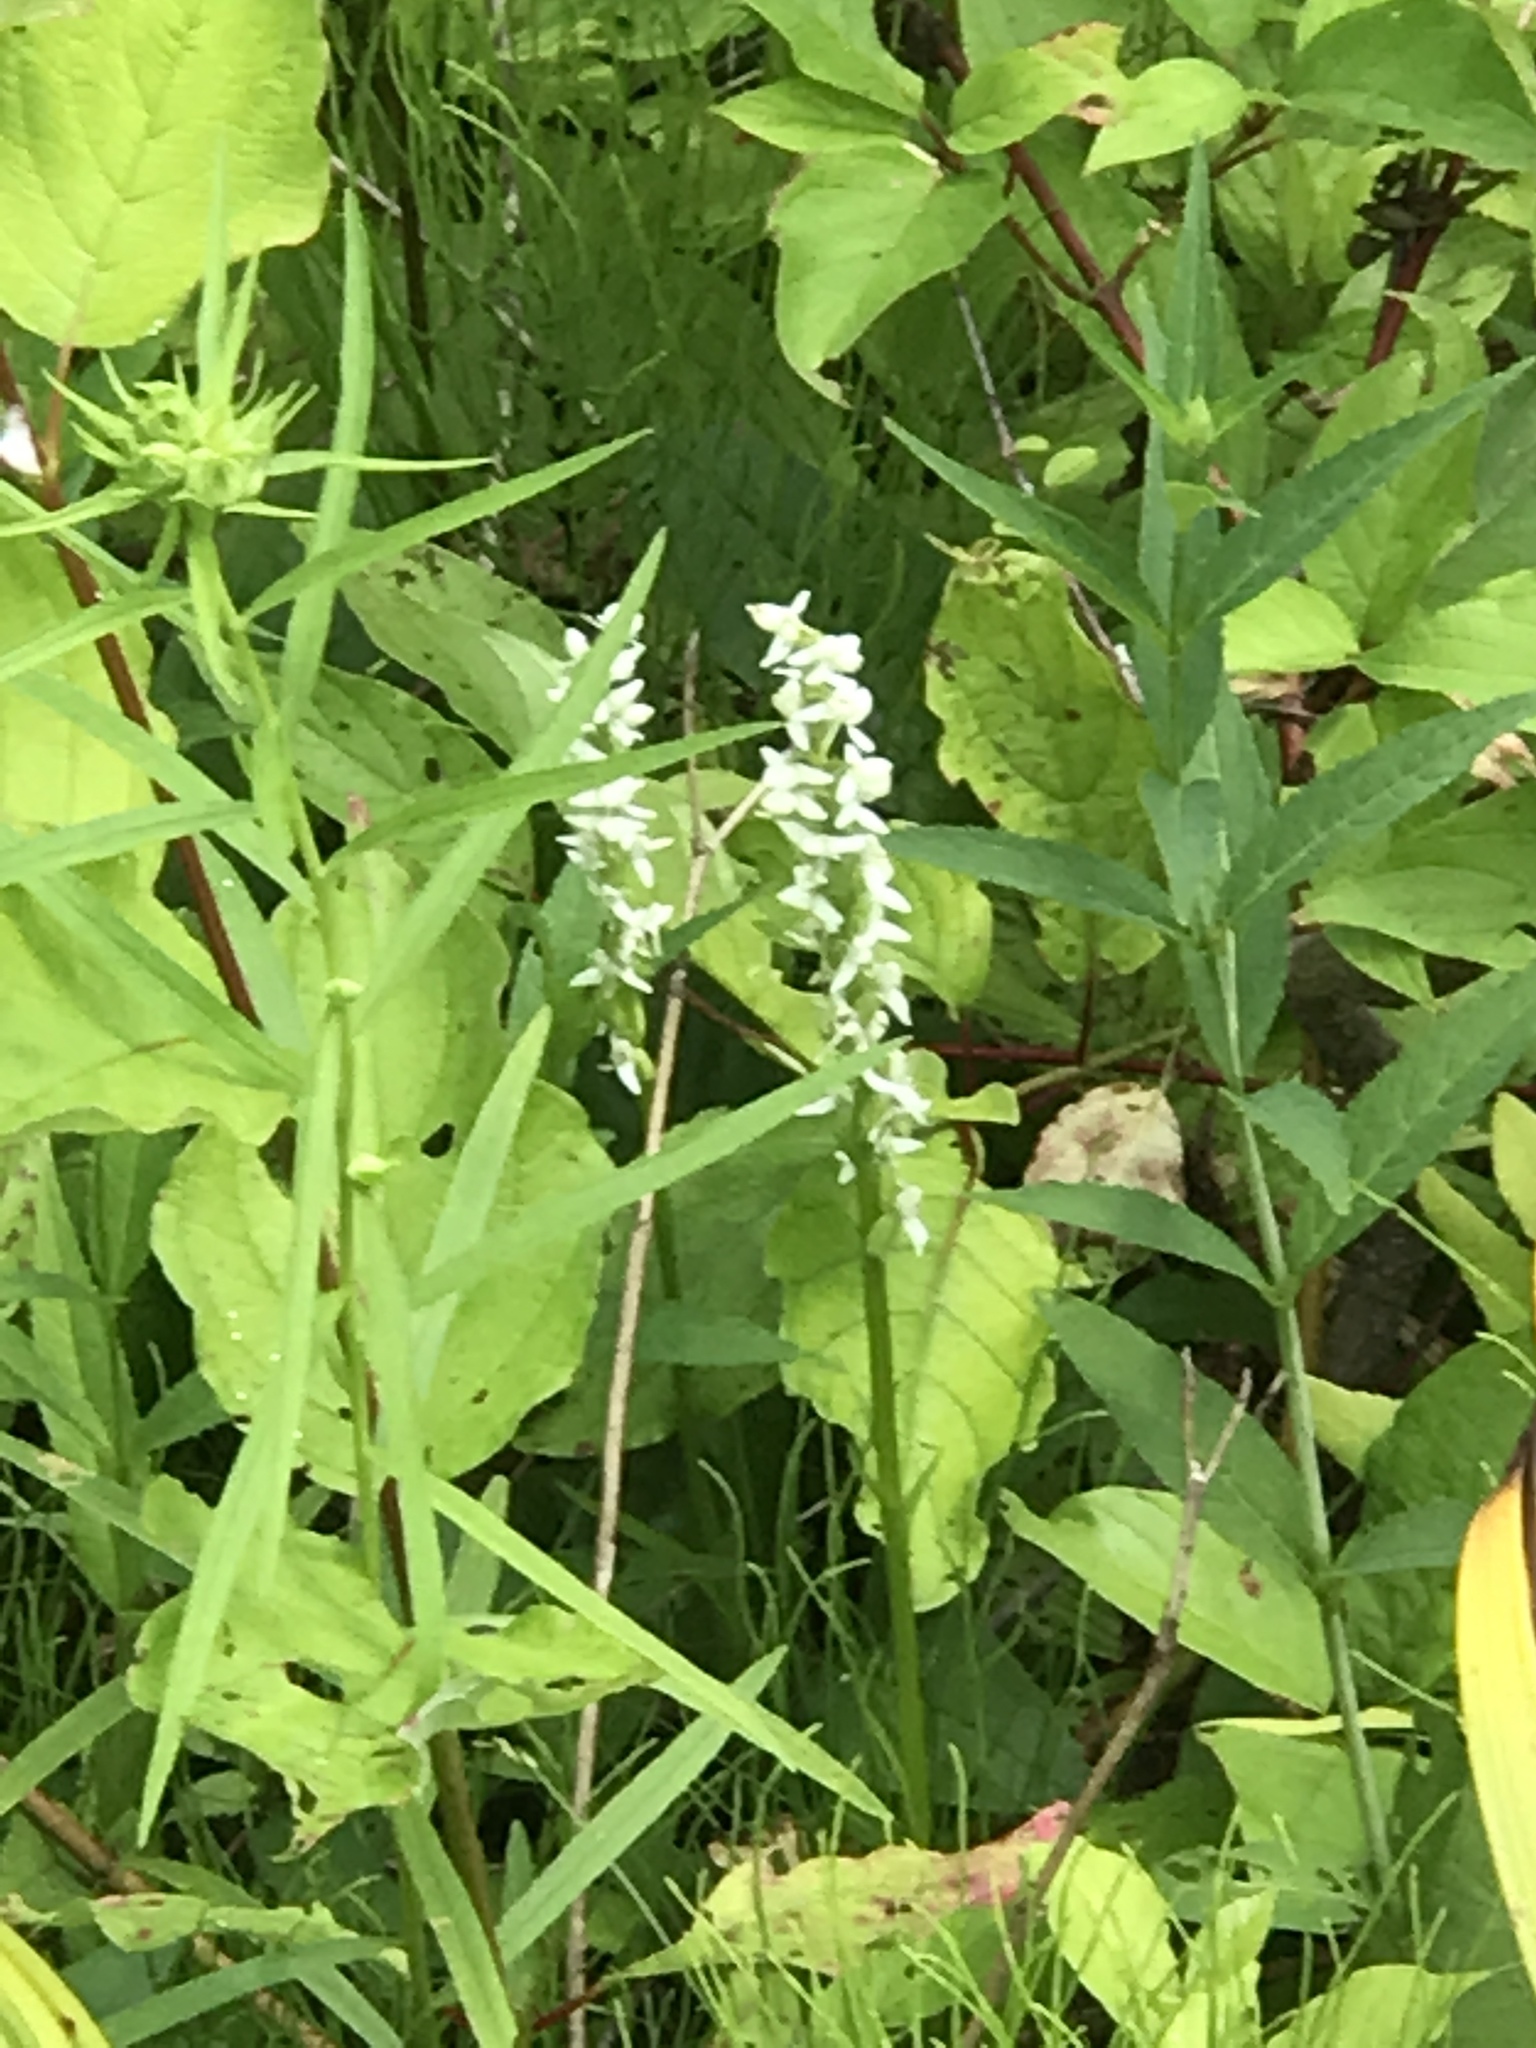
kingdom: Plantae
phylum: Tracheophyta
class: Liliopsida
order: Asparagales
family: Orchidaceae
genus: Platanthera
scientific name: Platanthera dilatata
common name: Bog candles
